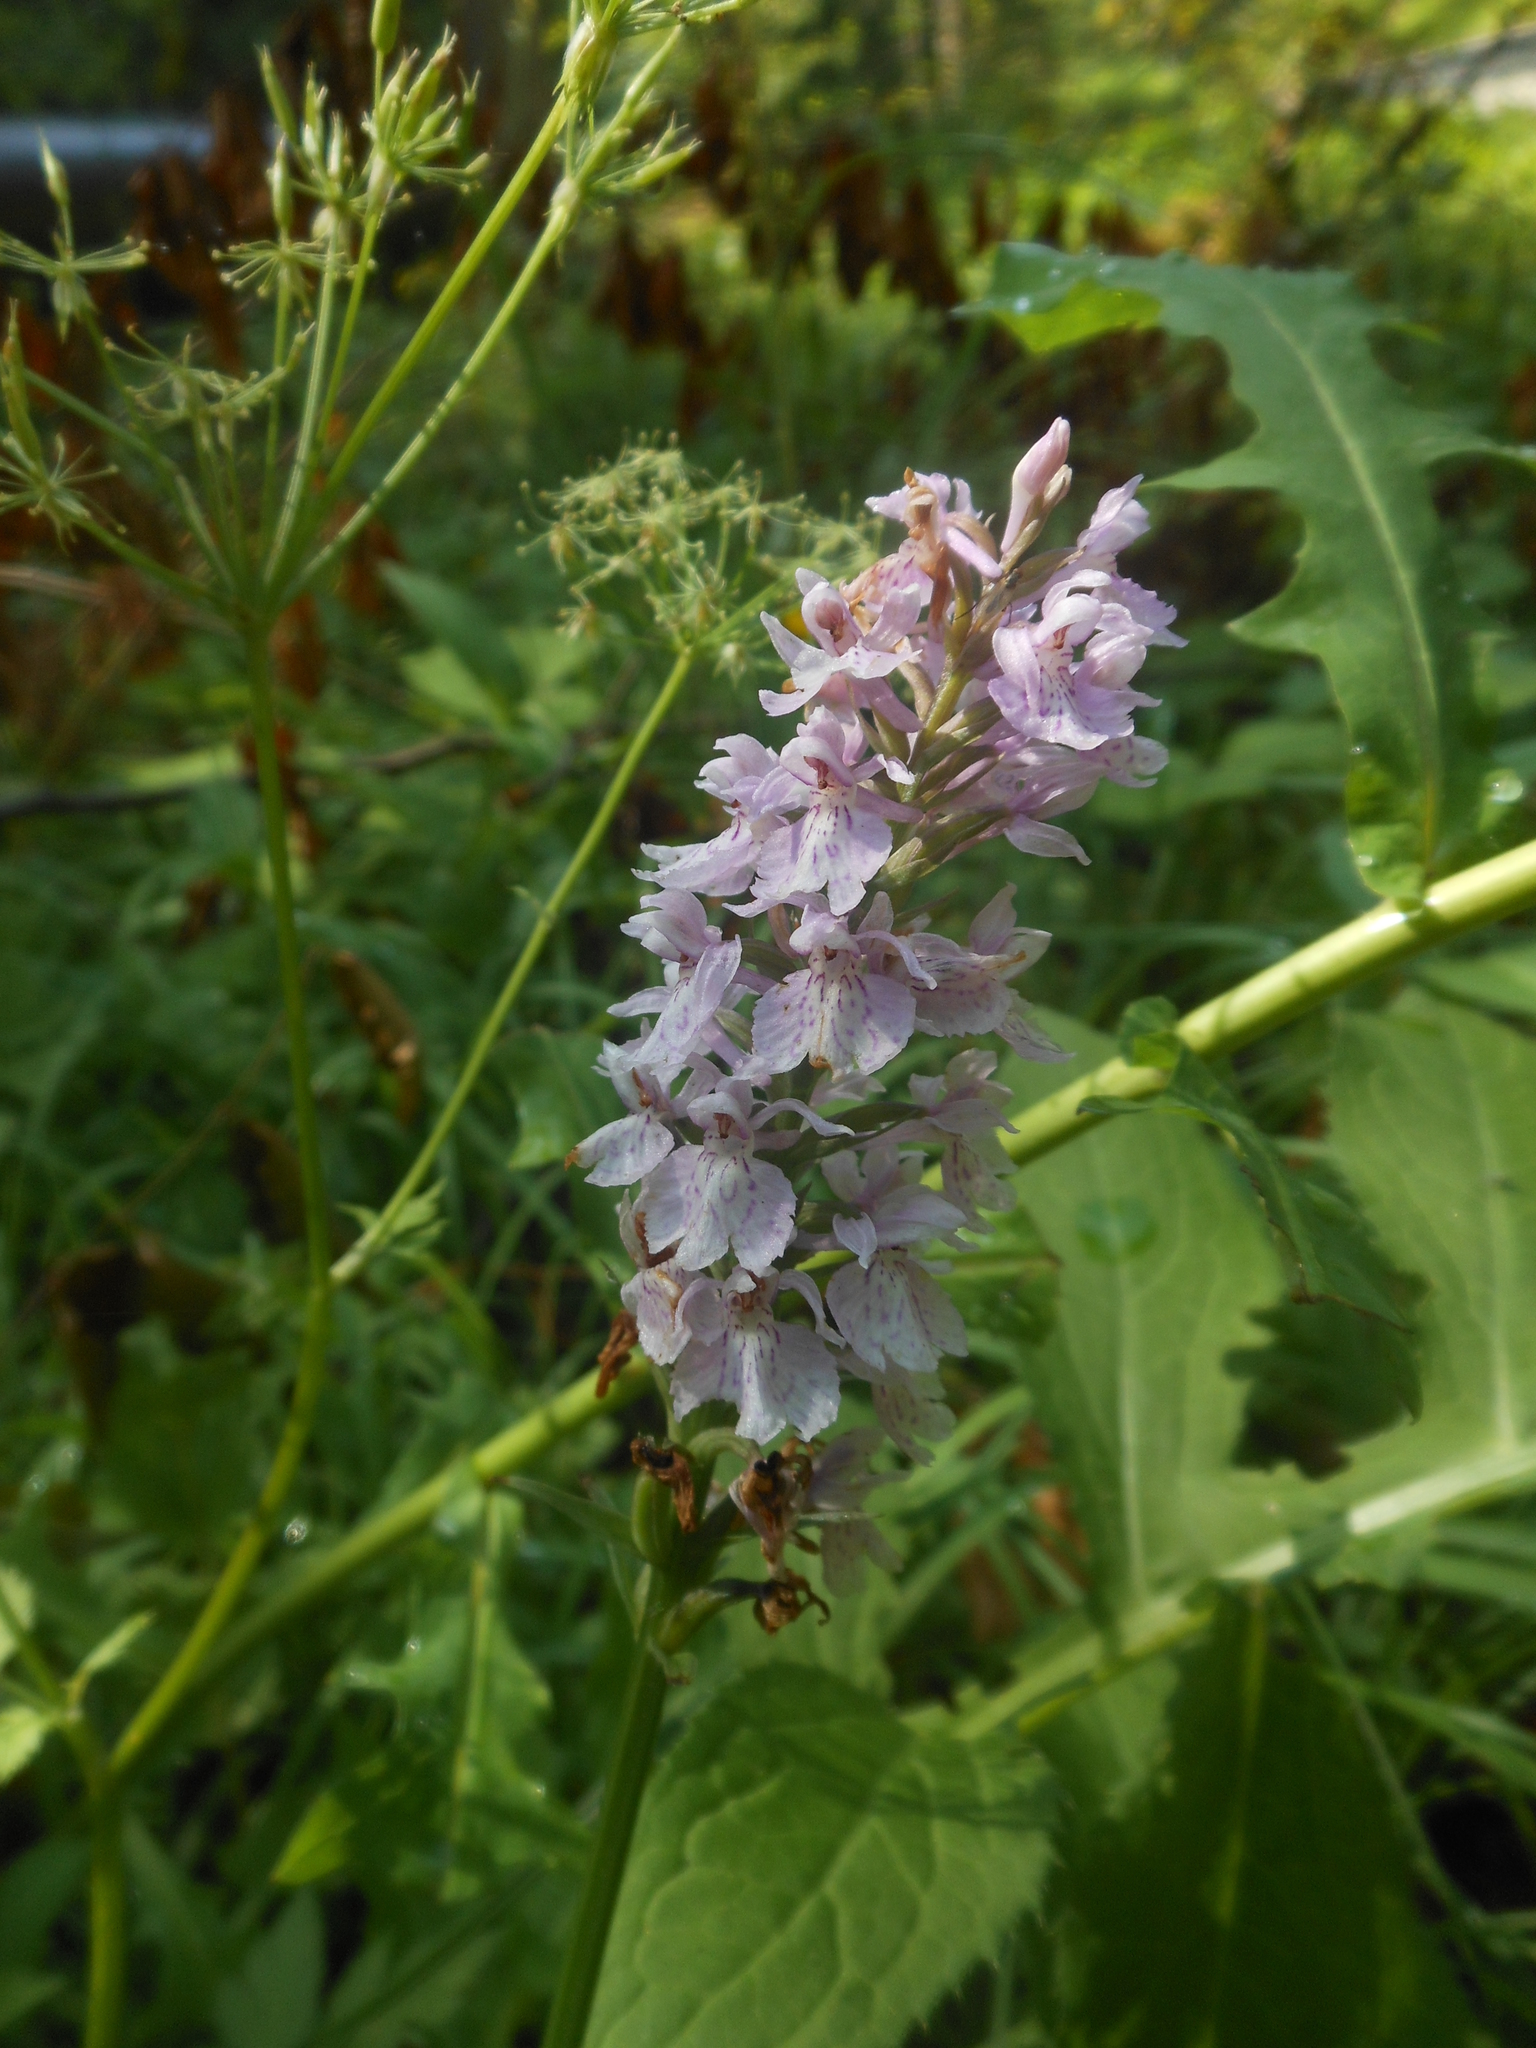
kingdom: Plantae
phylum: Tracheophyta
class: Liliopsida
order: Asparagales
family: Orchidaceae
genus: Dactylorhiza
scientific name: Dactylorhiza maculata
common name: Heath spotted-orchid
